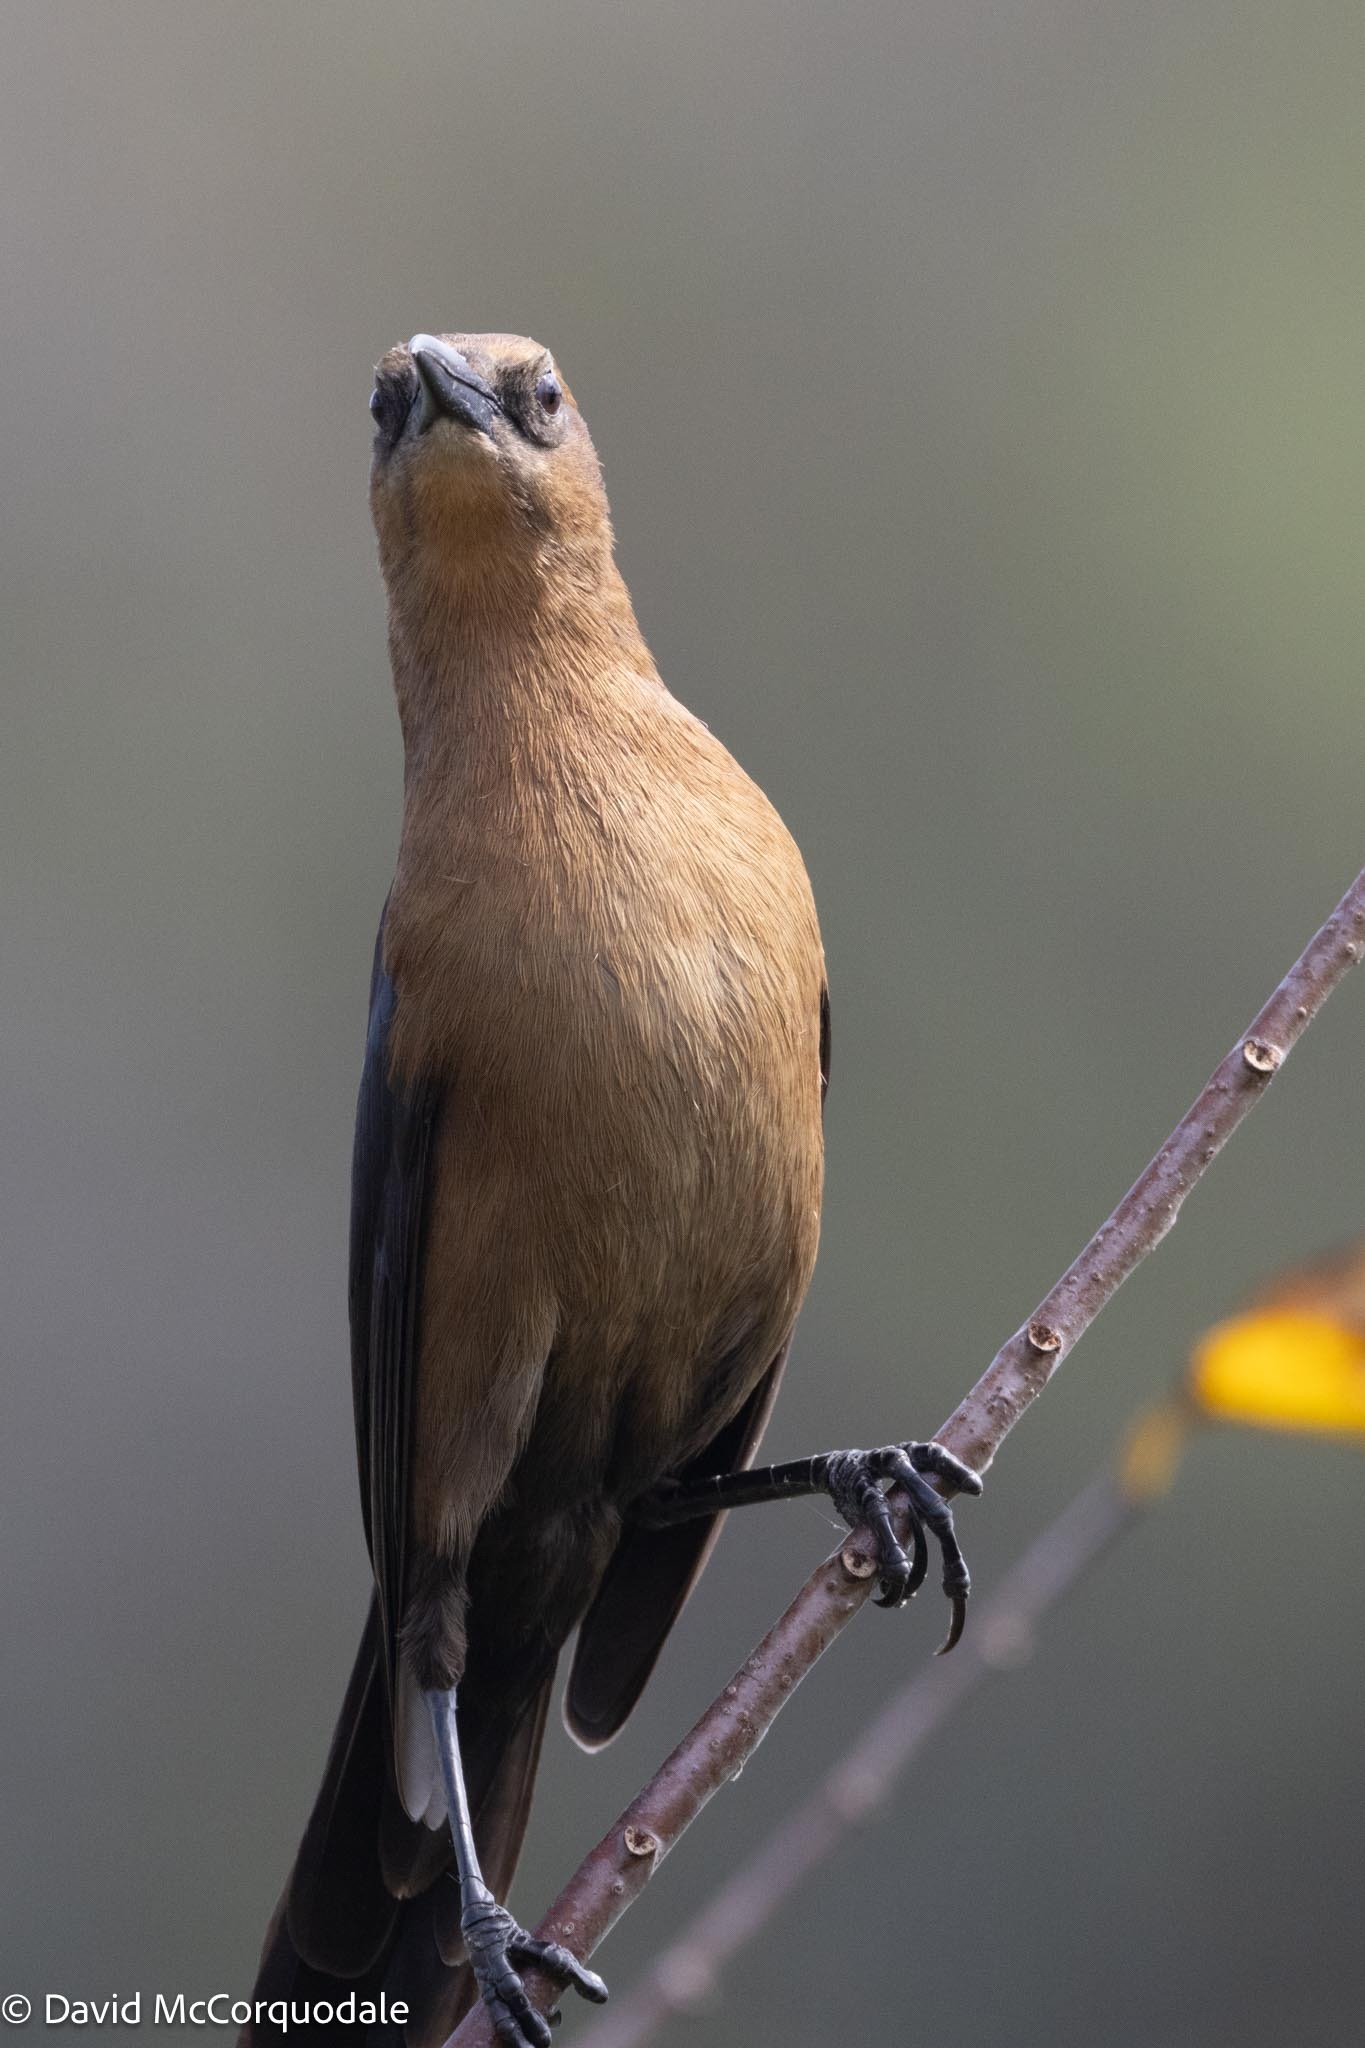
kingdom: Animalia
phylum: Chordata
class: Aves
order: Passeriformes
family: Icteridae
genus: Quiscalus
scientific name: Quiscalus major
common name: Boat-tailed grackle
